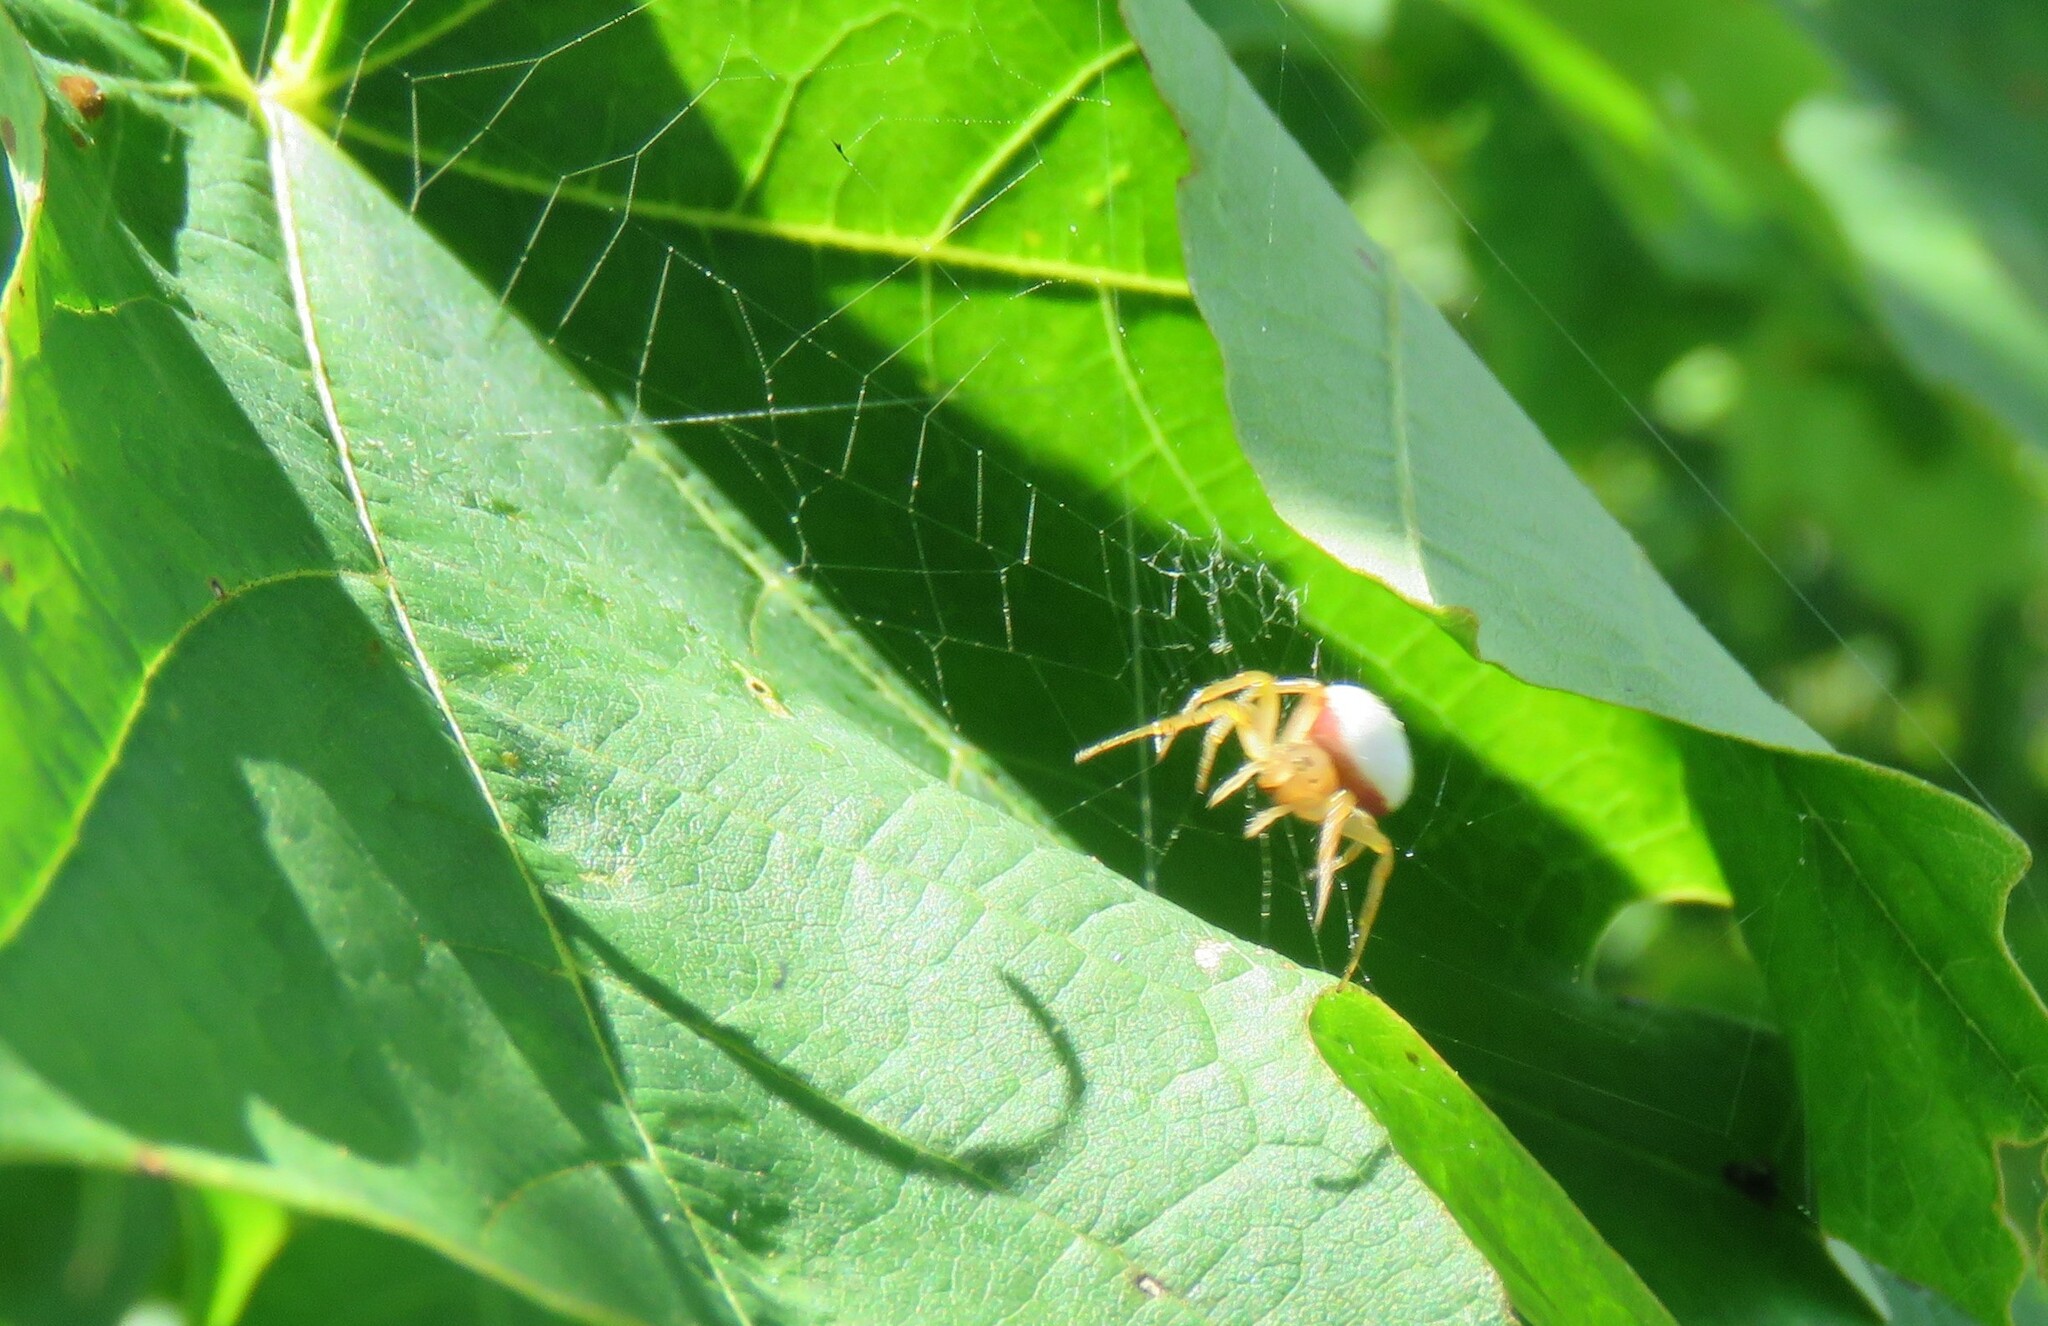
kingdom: Animalia
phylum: Arthropoda
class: Arachnida
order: Araneae
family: Araneidae
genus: Araniella
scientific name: Araniella displicata
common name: Sixspotted orb weaver
